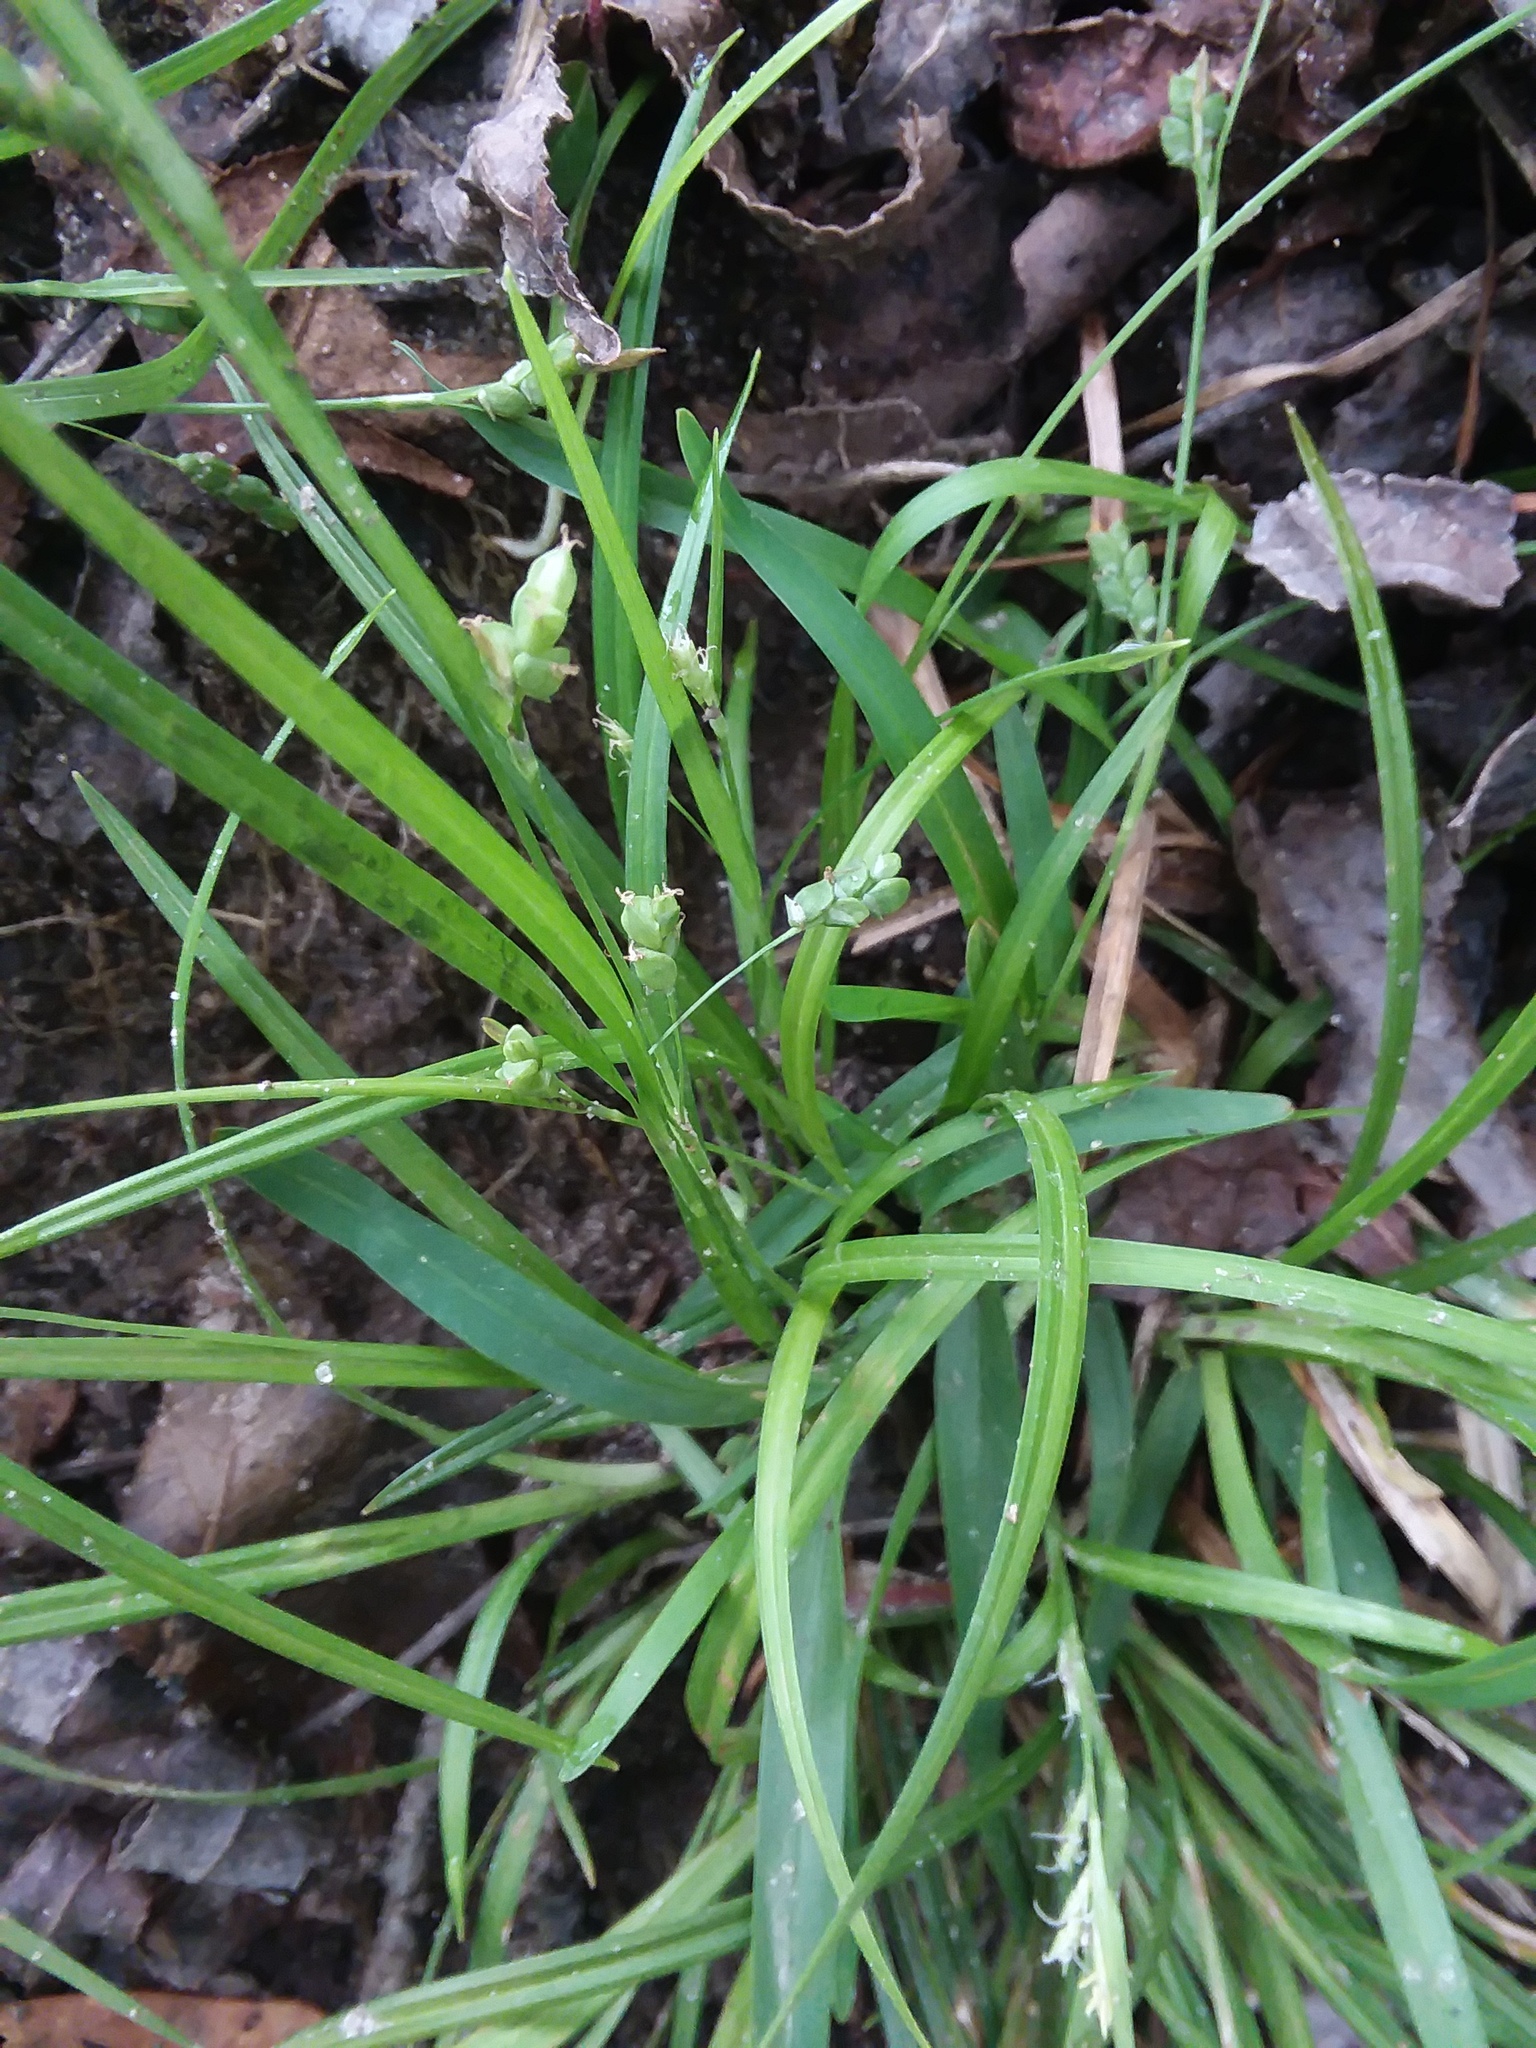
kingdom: Plantae
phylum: Tracheophyta
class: Liliopsida
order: Poales
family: Cyperaceae
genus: Carex
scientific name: Carex digitalis
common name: Slender wood sedge
